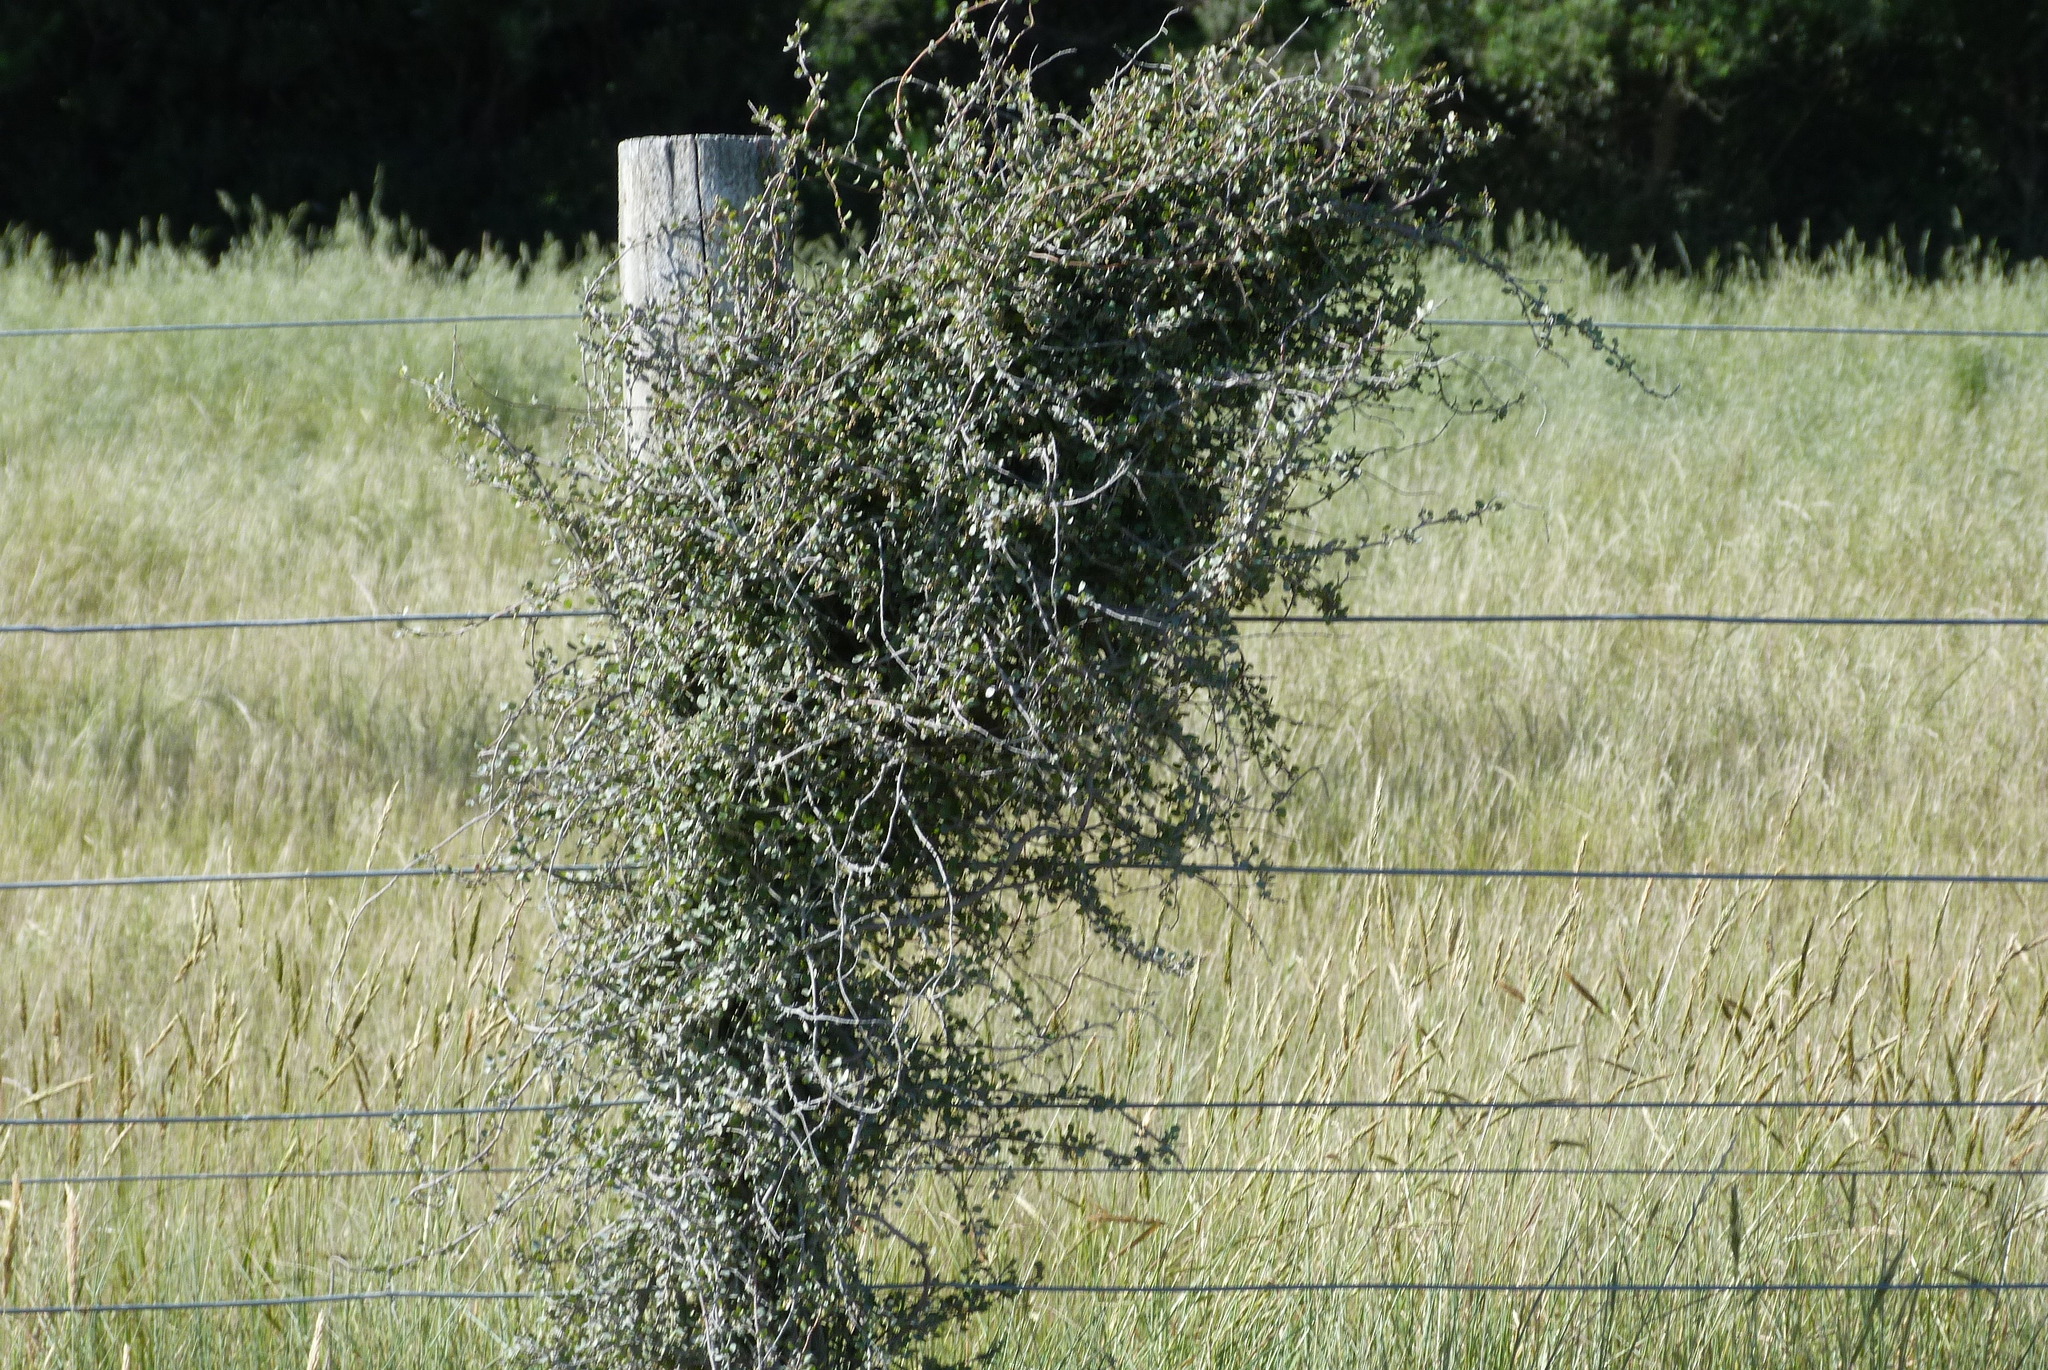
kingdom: Plantae
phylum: Tracheophyta
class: Magnoliopsida
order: Caryophyllales
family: Polygonaceae
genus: Muehlenbeckia
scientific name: Muehlenbeckia complexa
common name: Wireplant
